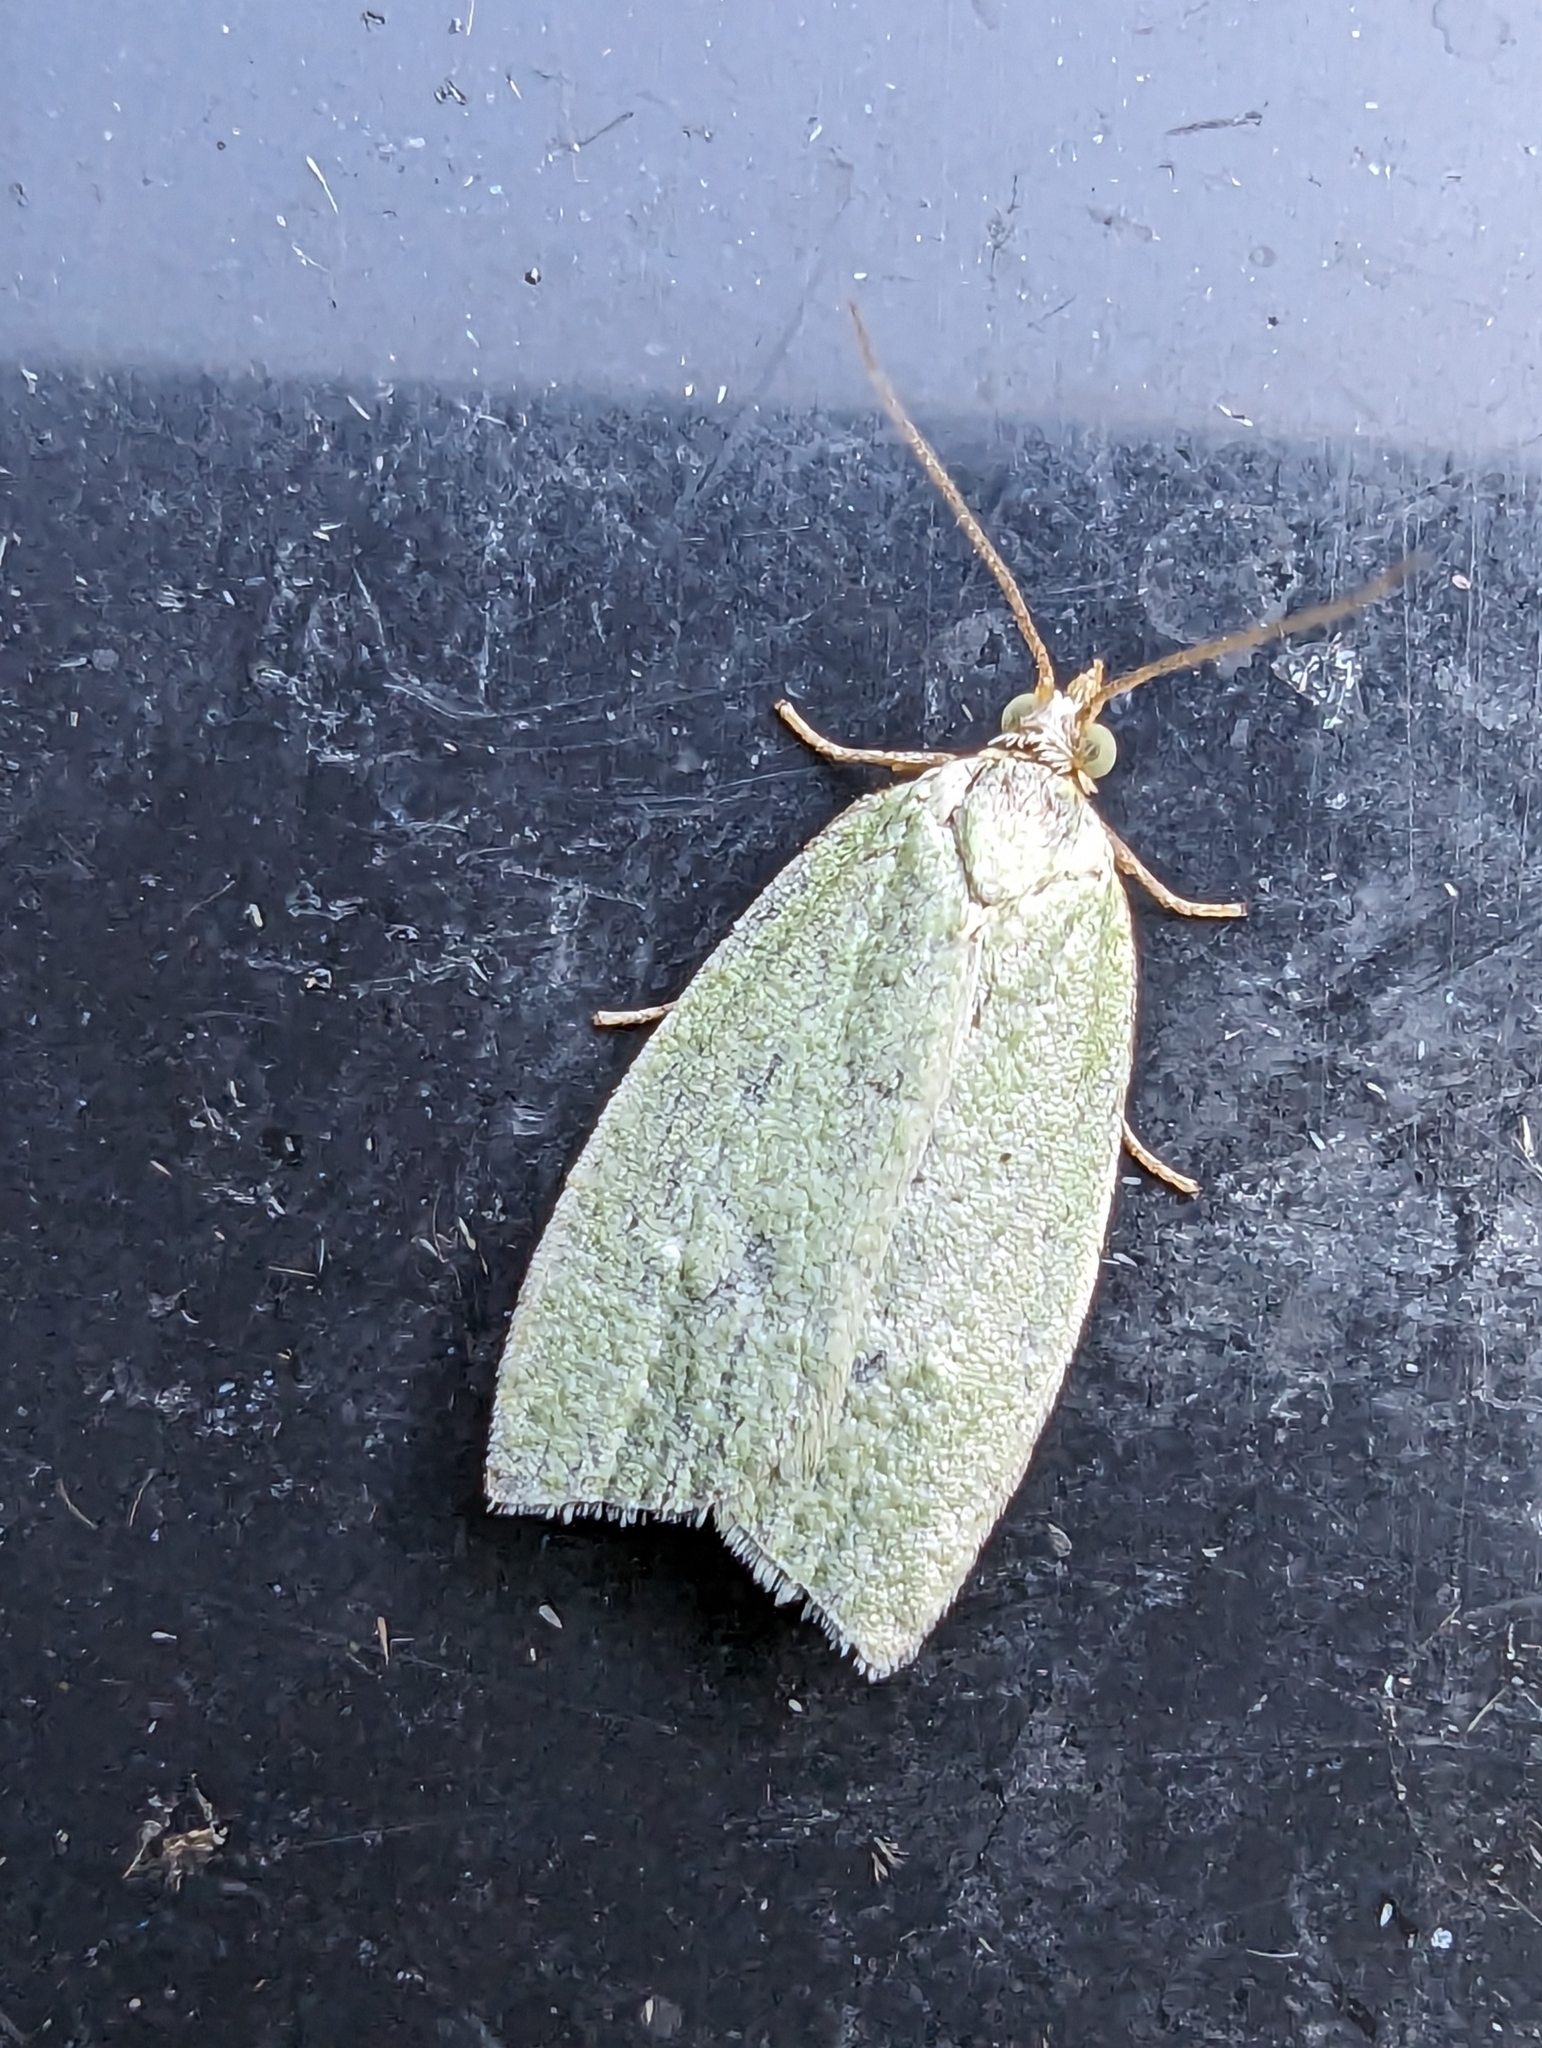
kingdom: Animalia
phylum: Arthropoda
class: Insecta
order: Lepidoptera
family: Tortricidae
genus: Tortrix
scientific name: Tortrix viridana
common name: Green oak tortrix
